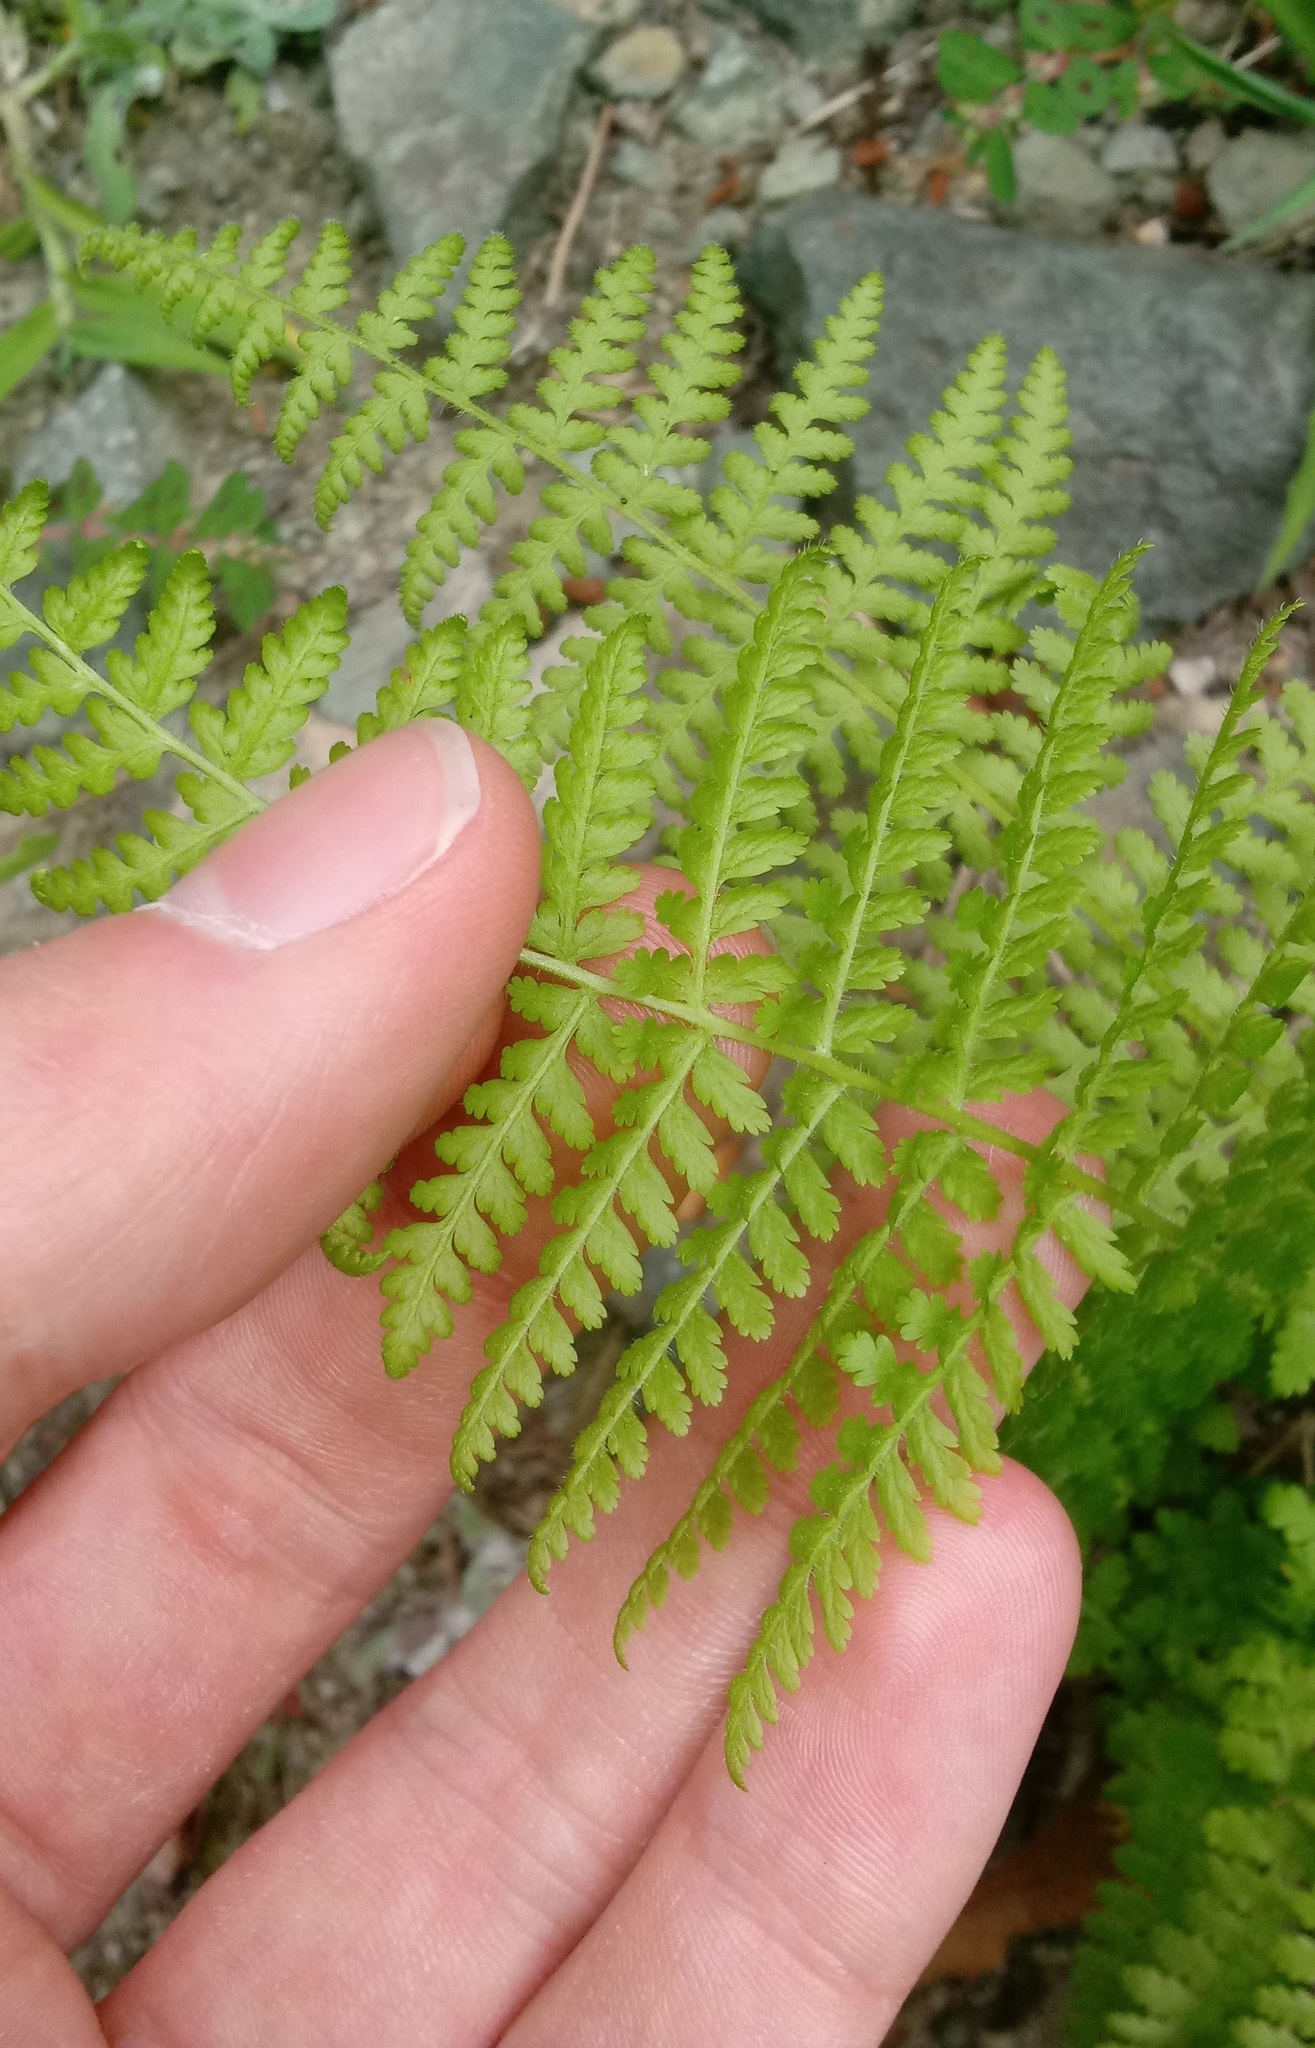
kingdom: Plantae
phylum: Tracheophyta
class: Polypodiopsida
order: Polypodiales
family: Dennstaedtiaceae
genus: Sitobolium
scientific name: Sitobolium punctilobum
